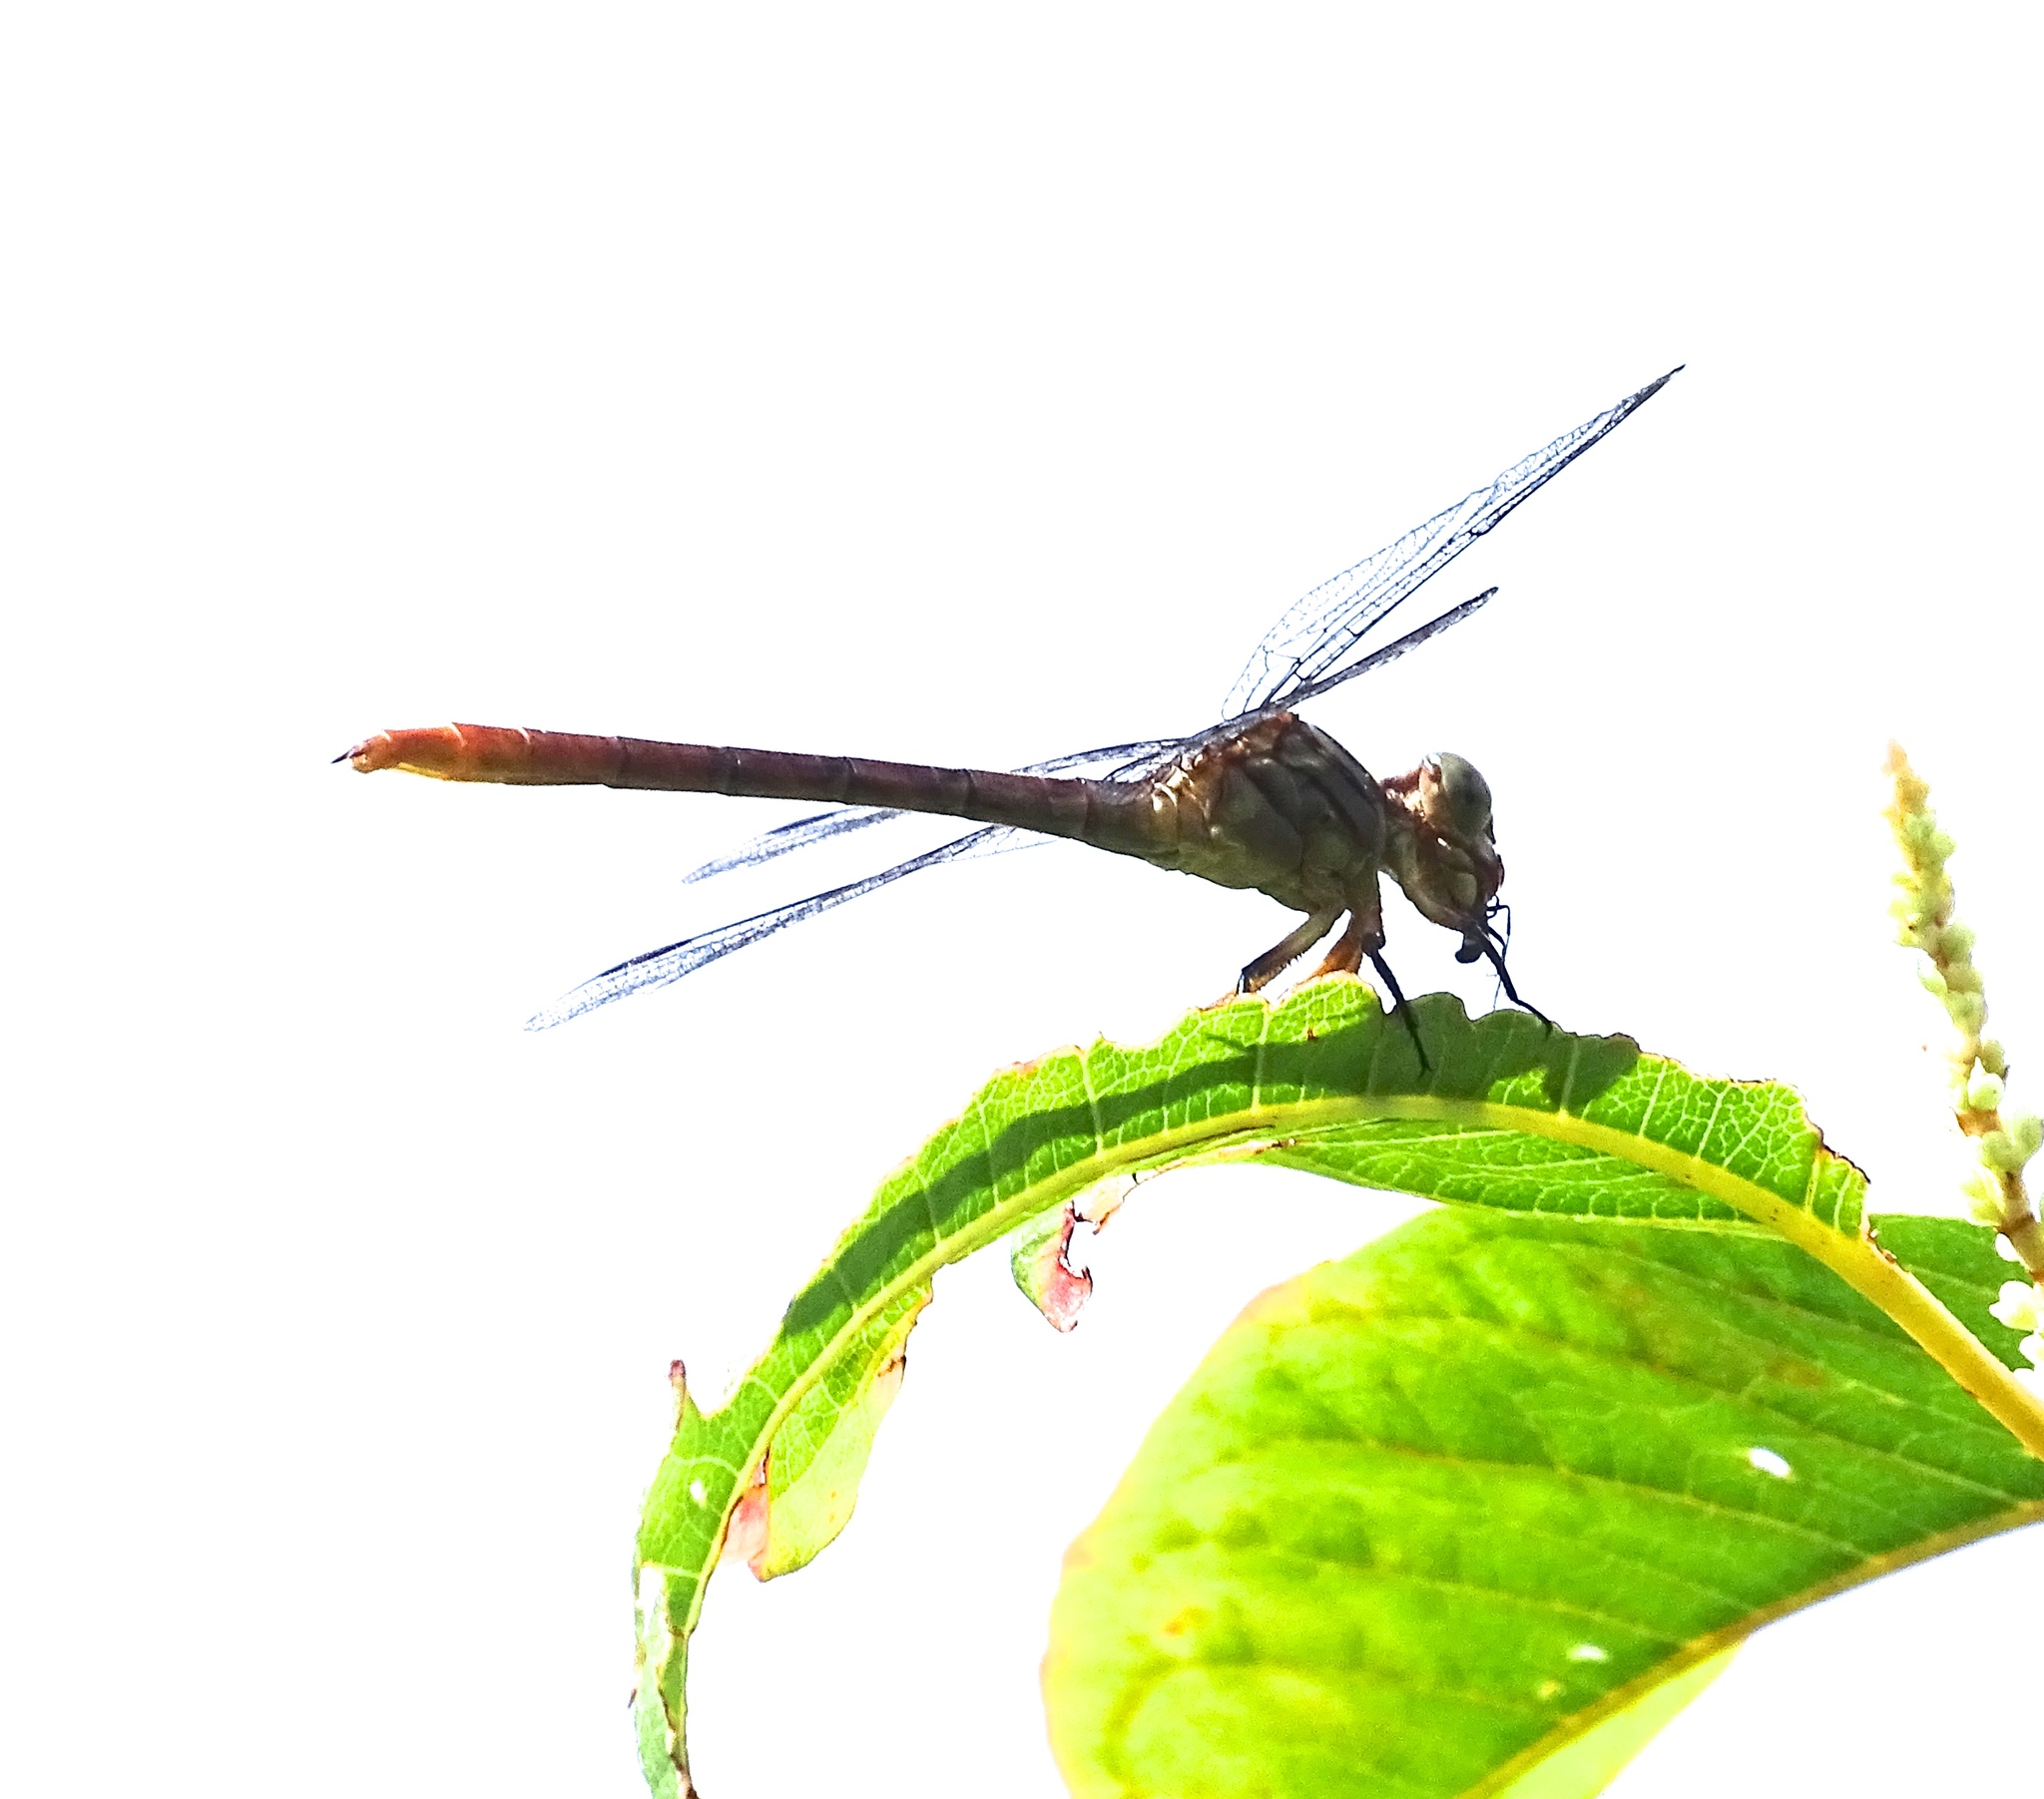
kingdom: Animalia
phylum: Arthropoda
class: Insecta
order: Odonata
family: Gomphidae
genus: Stylurus
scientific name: Stylurus plagiatus
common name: Russet-tipped clubtail
